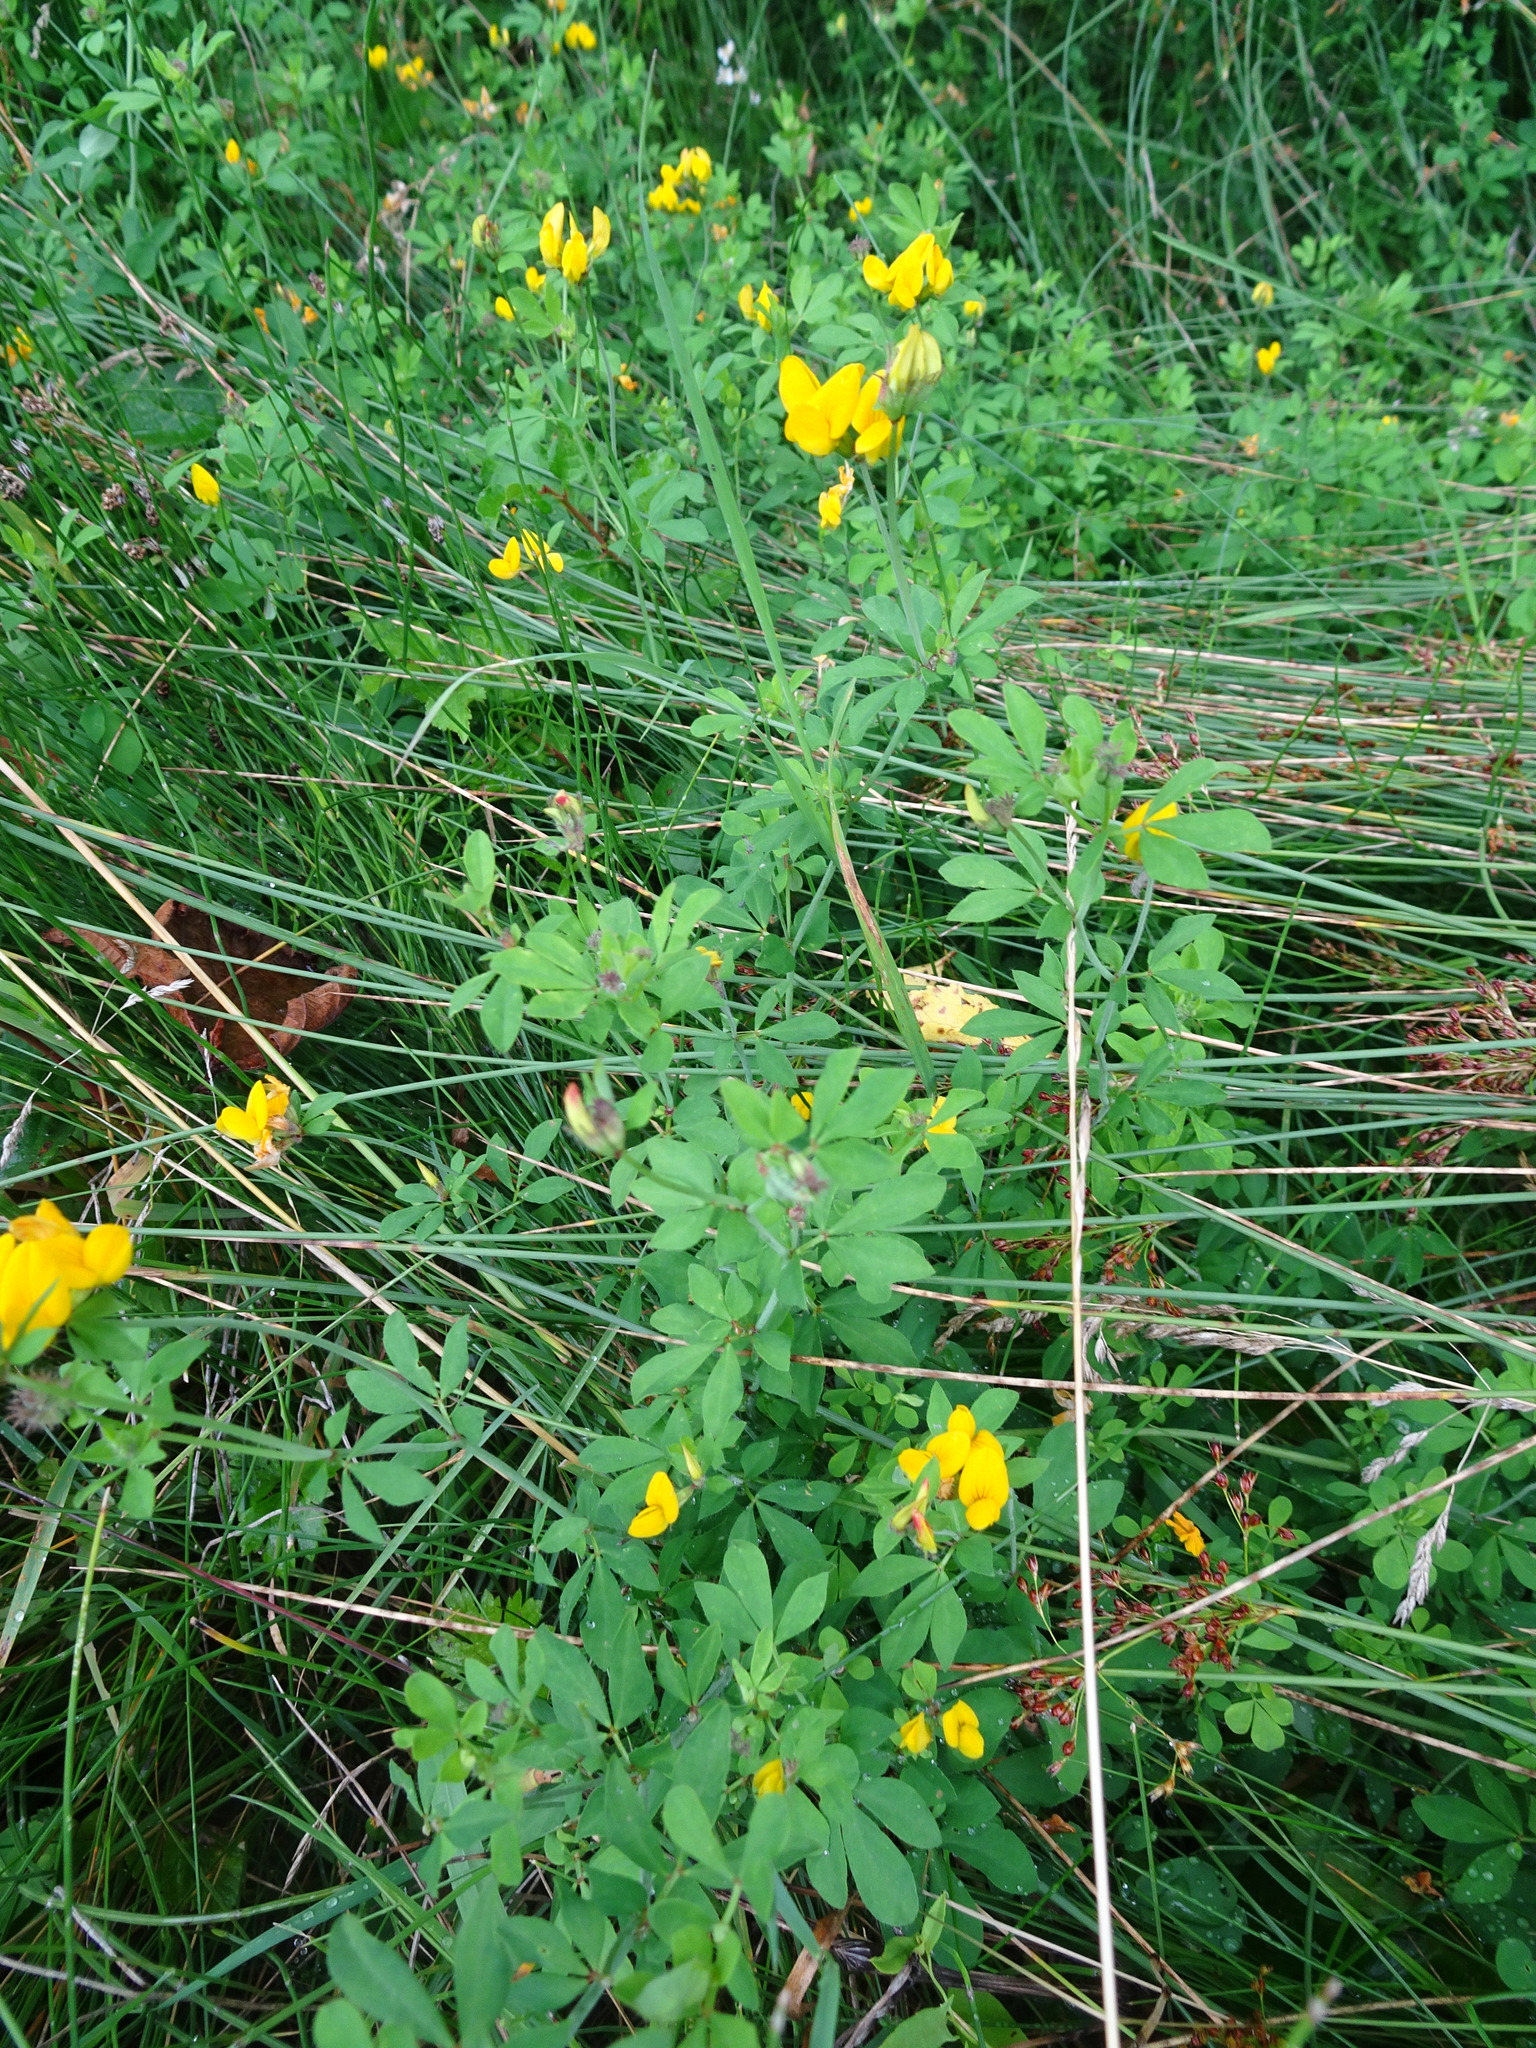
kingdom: Plantae
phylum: Tracheophyta
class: Magnoliopsida
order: Fabales
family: Fabaceae
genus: Lotus
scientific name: Lotus pedunculatus
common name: Greater birdsfoot-trefoil
